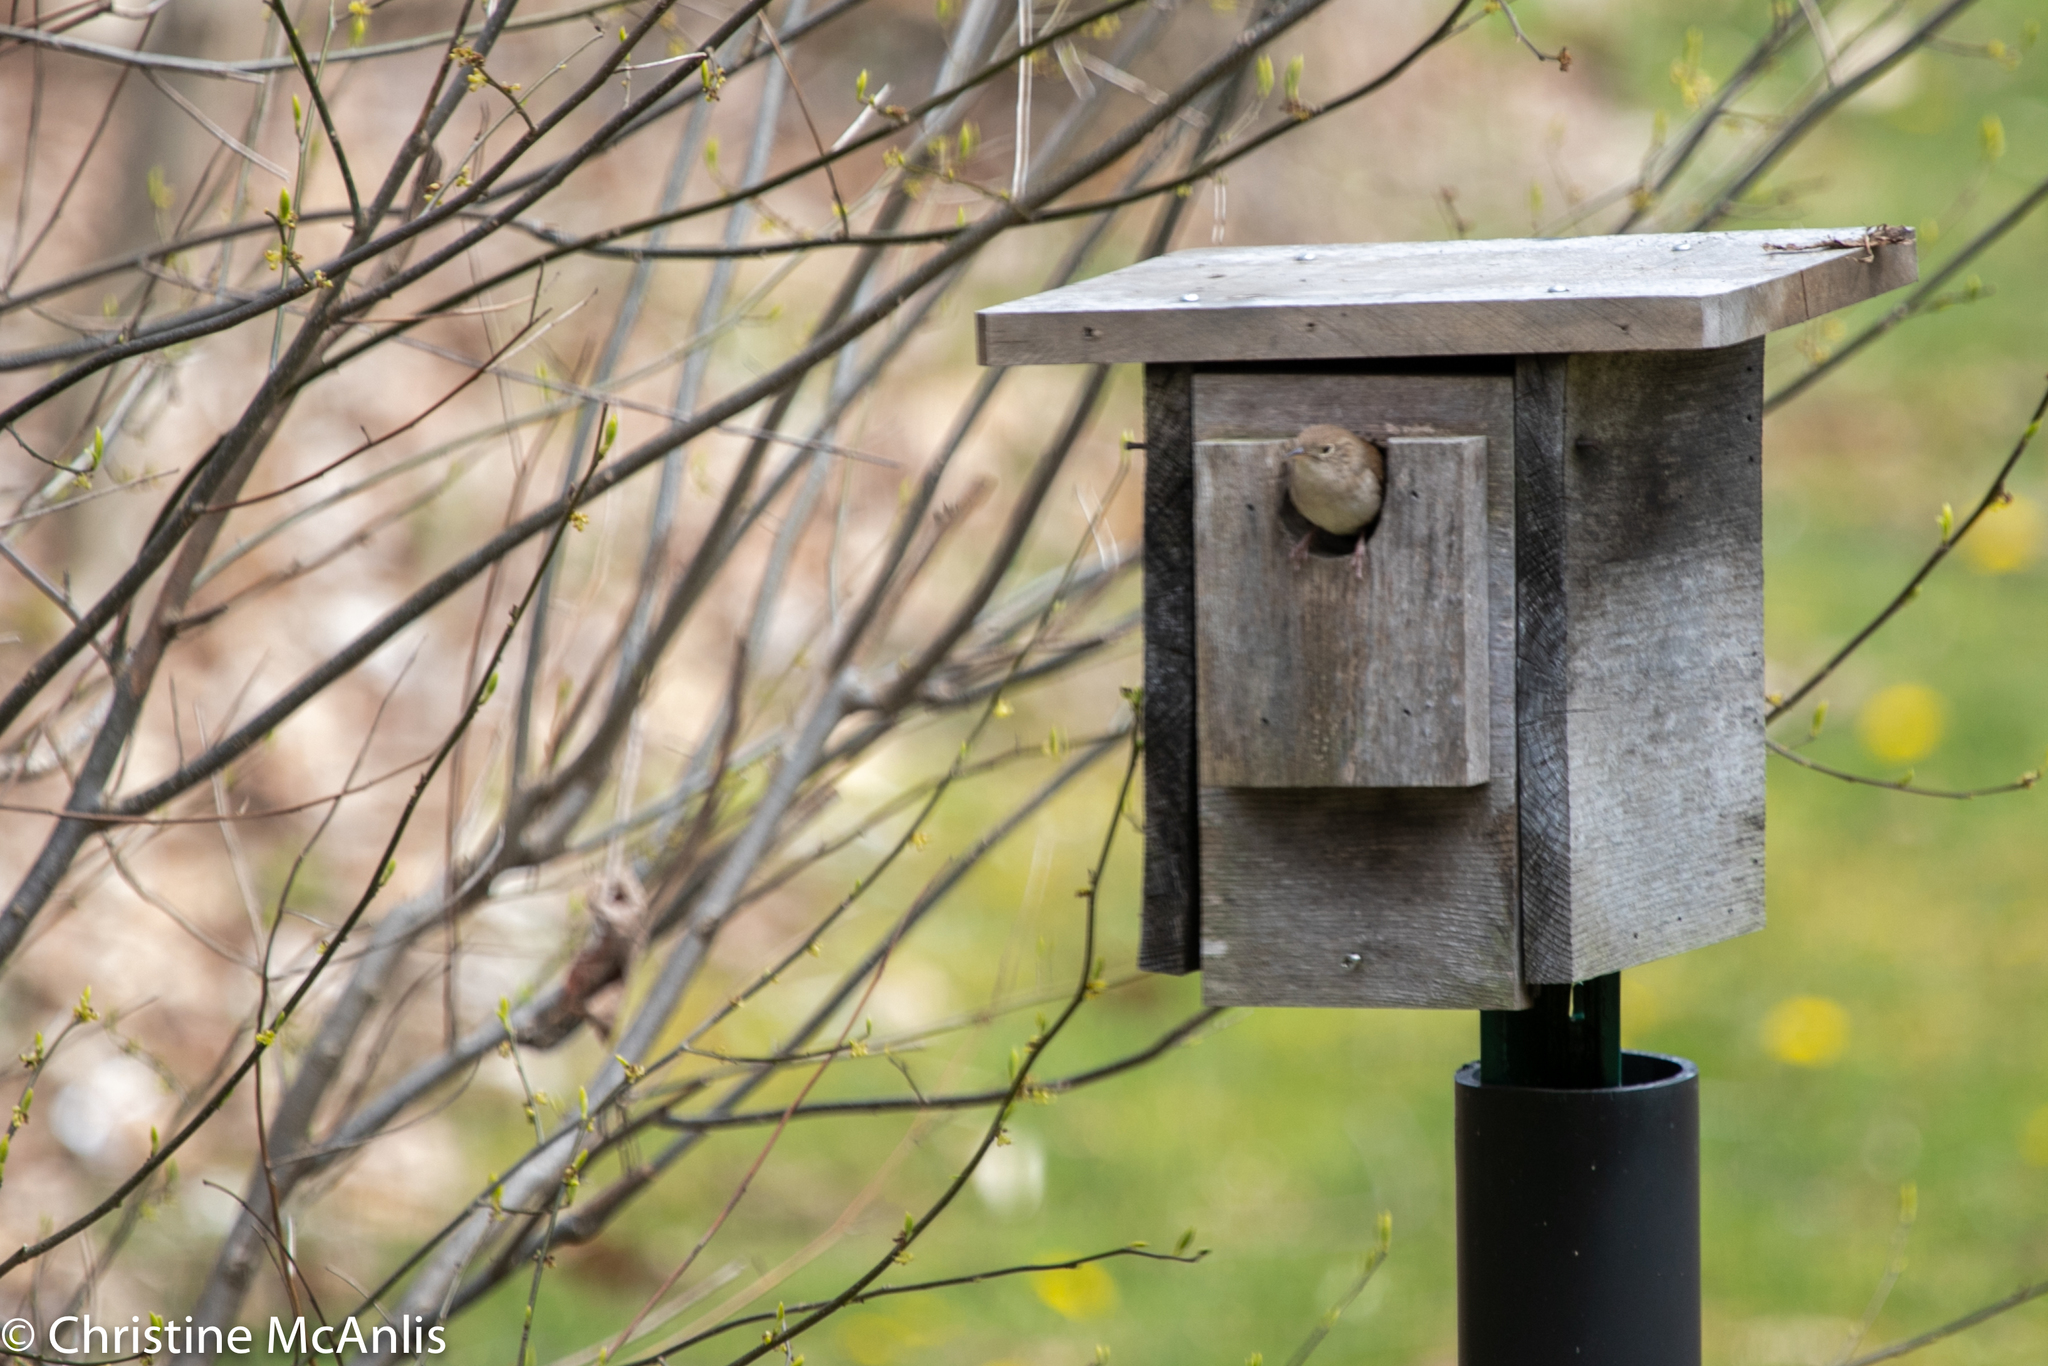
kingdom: Animalia
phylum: Chordata
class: Aves
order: Passeriformes
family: Troglodytidae
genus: Troglodytes
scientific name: Troglodytes aedon
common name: House wren
